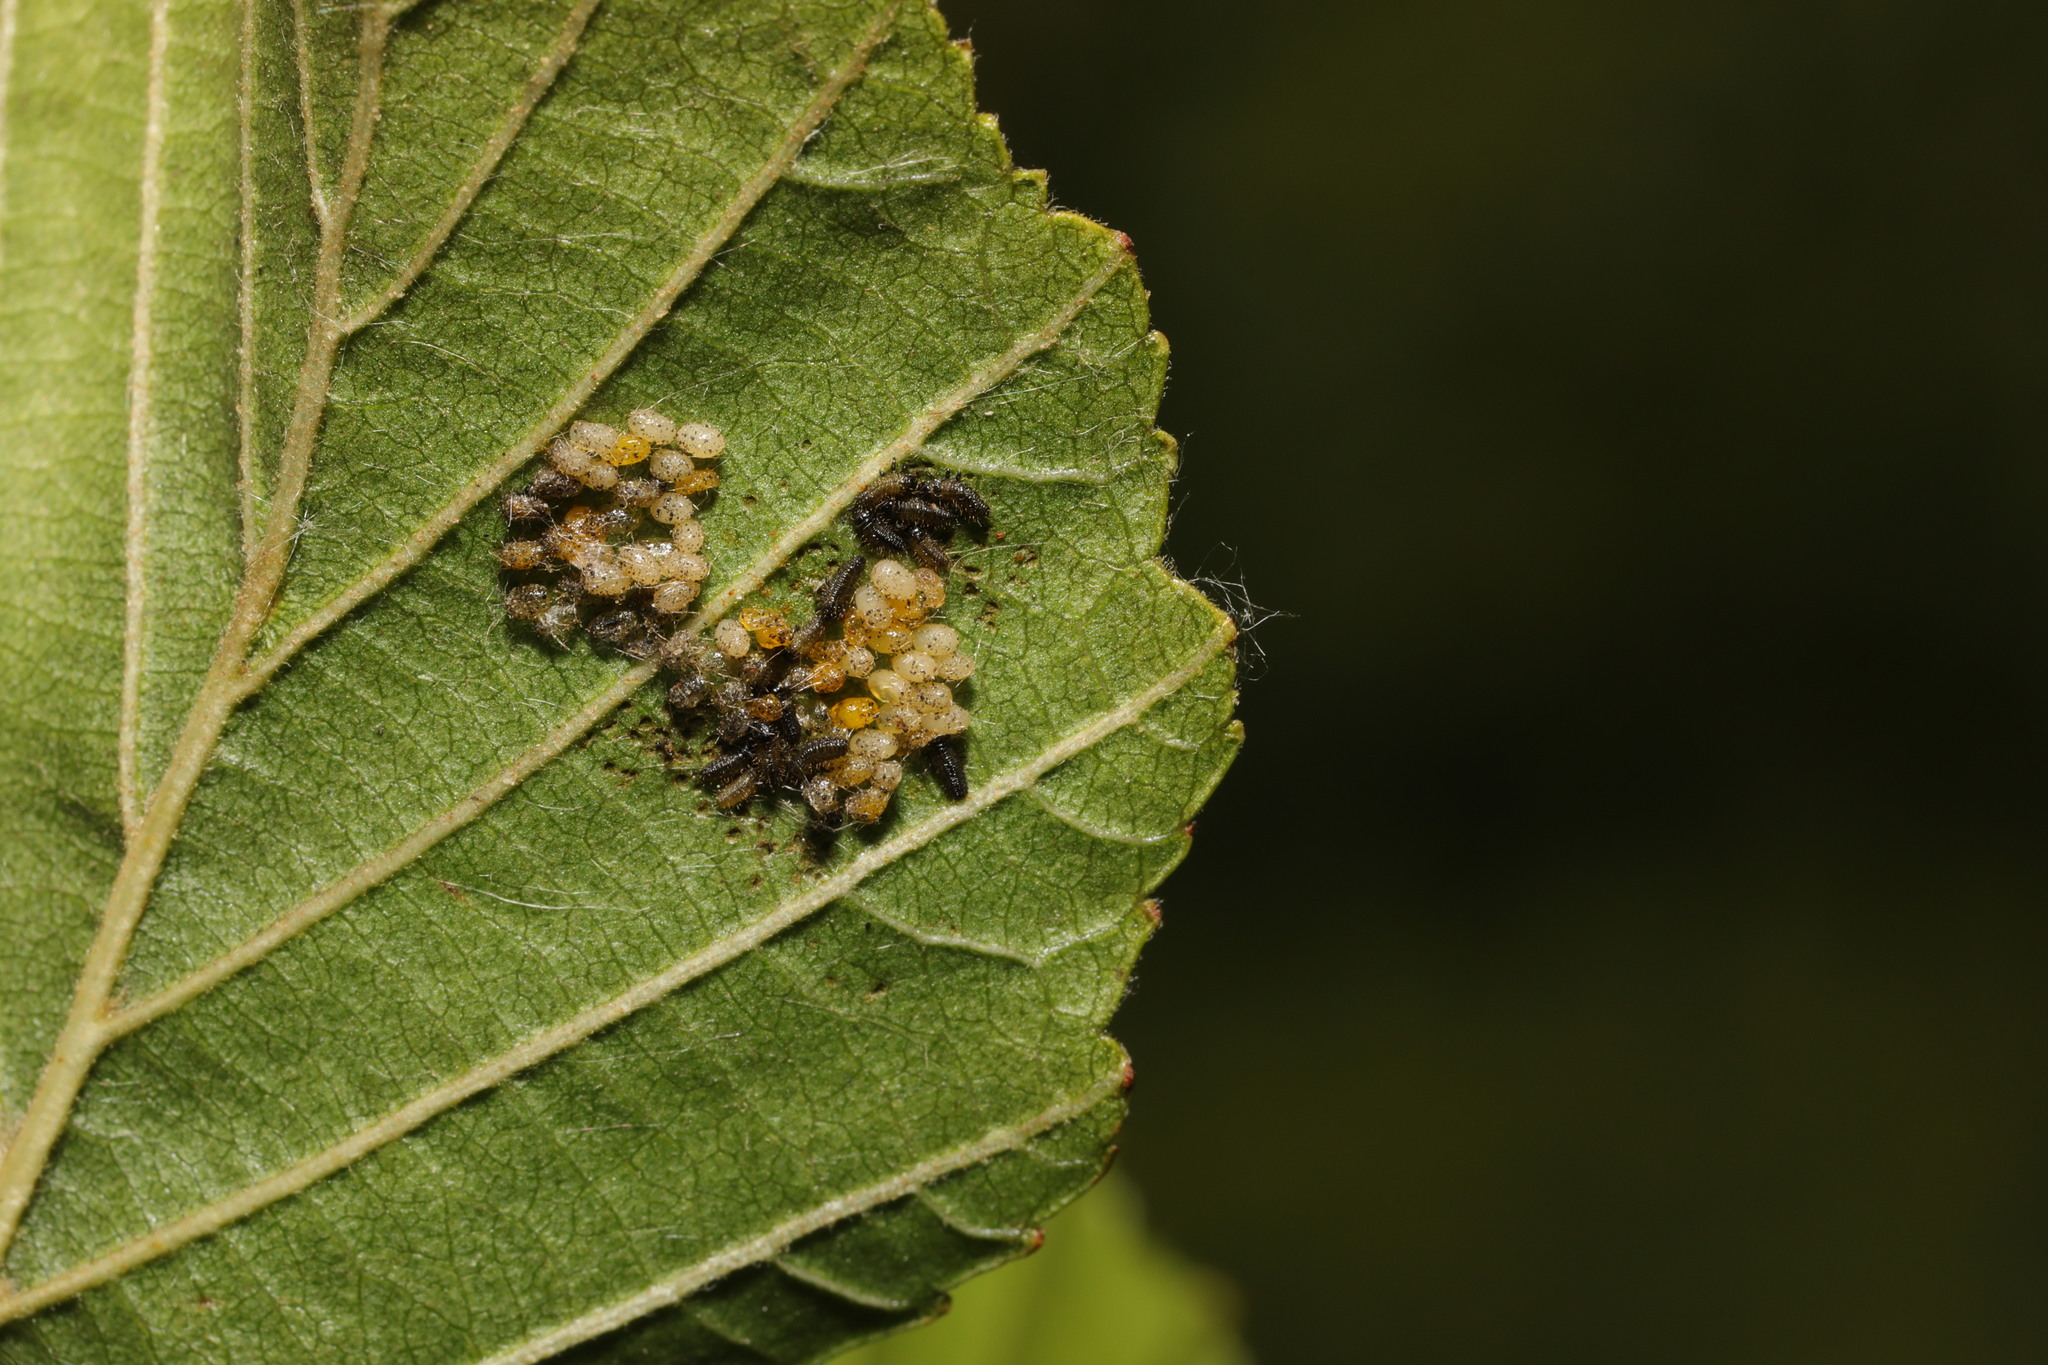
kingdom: Animalia
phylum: Arthropoda
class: Insecta
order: Coleoptera
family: Chrysomelidae
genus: Agelastica
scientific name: Agelastica alni
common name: Alder leaf beetle
